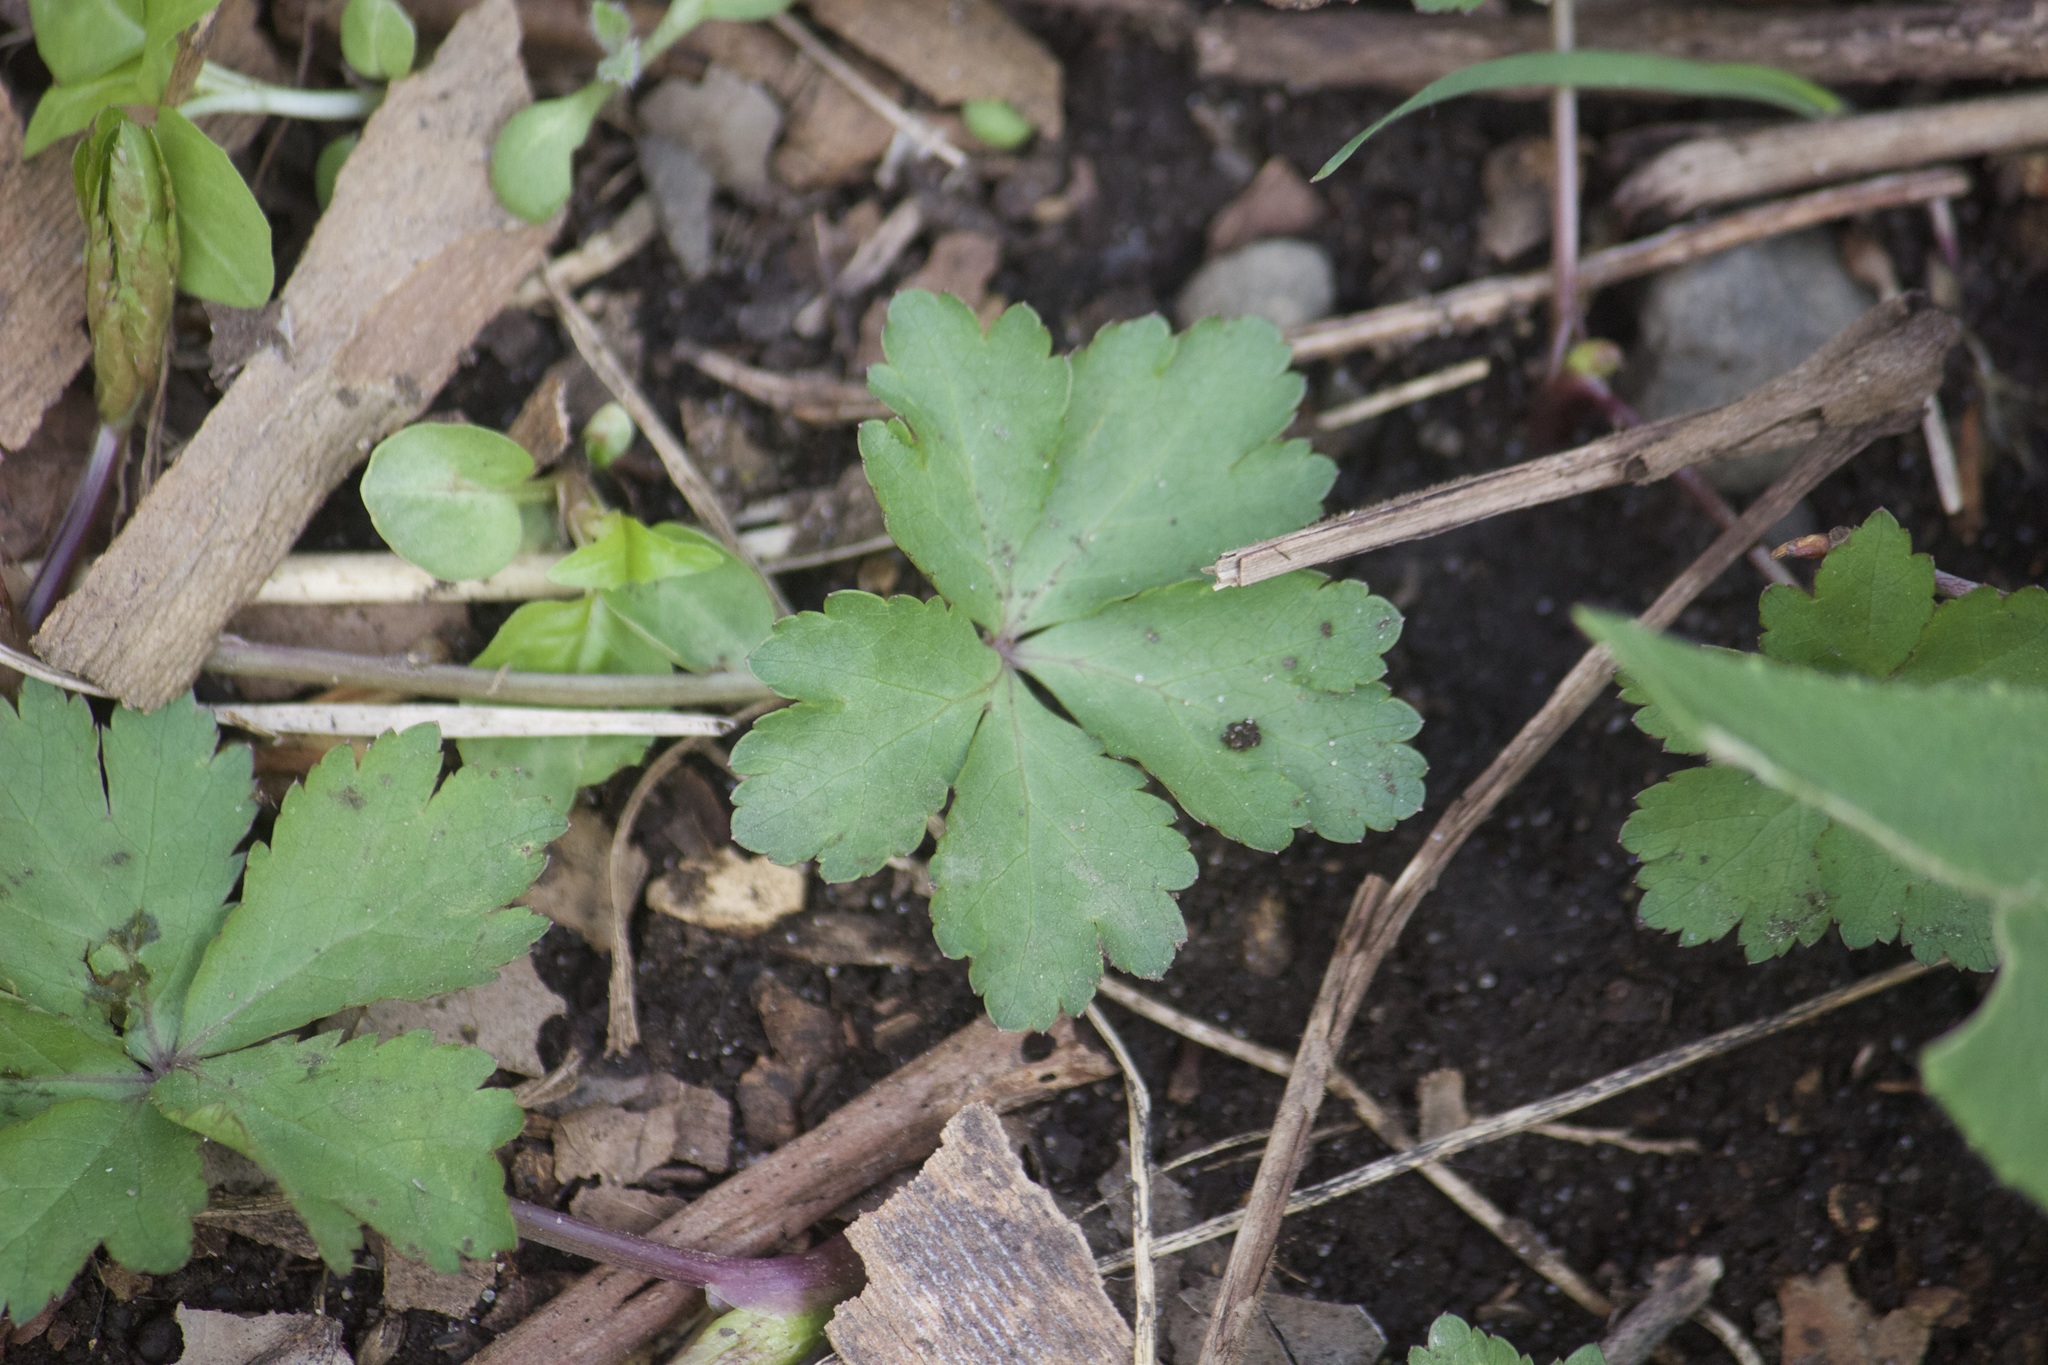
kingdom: Plantae
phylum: Tracheophyta
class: Magnoliopsida
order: Rosales
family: Rosaceae
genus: Geum
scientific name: Geum fragarioides
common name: Appalachian barren strawberry
